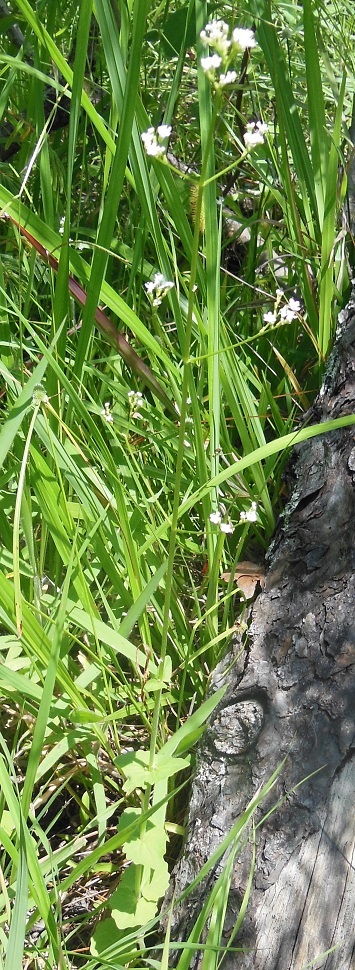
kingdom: Plantae
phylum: Tracheophyta
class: Magnoliopsida
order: Dipsacales
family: Caprifoliaceae
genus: Valeriana
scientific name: Valeriana urticifolia
